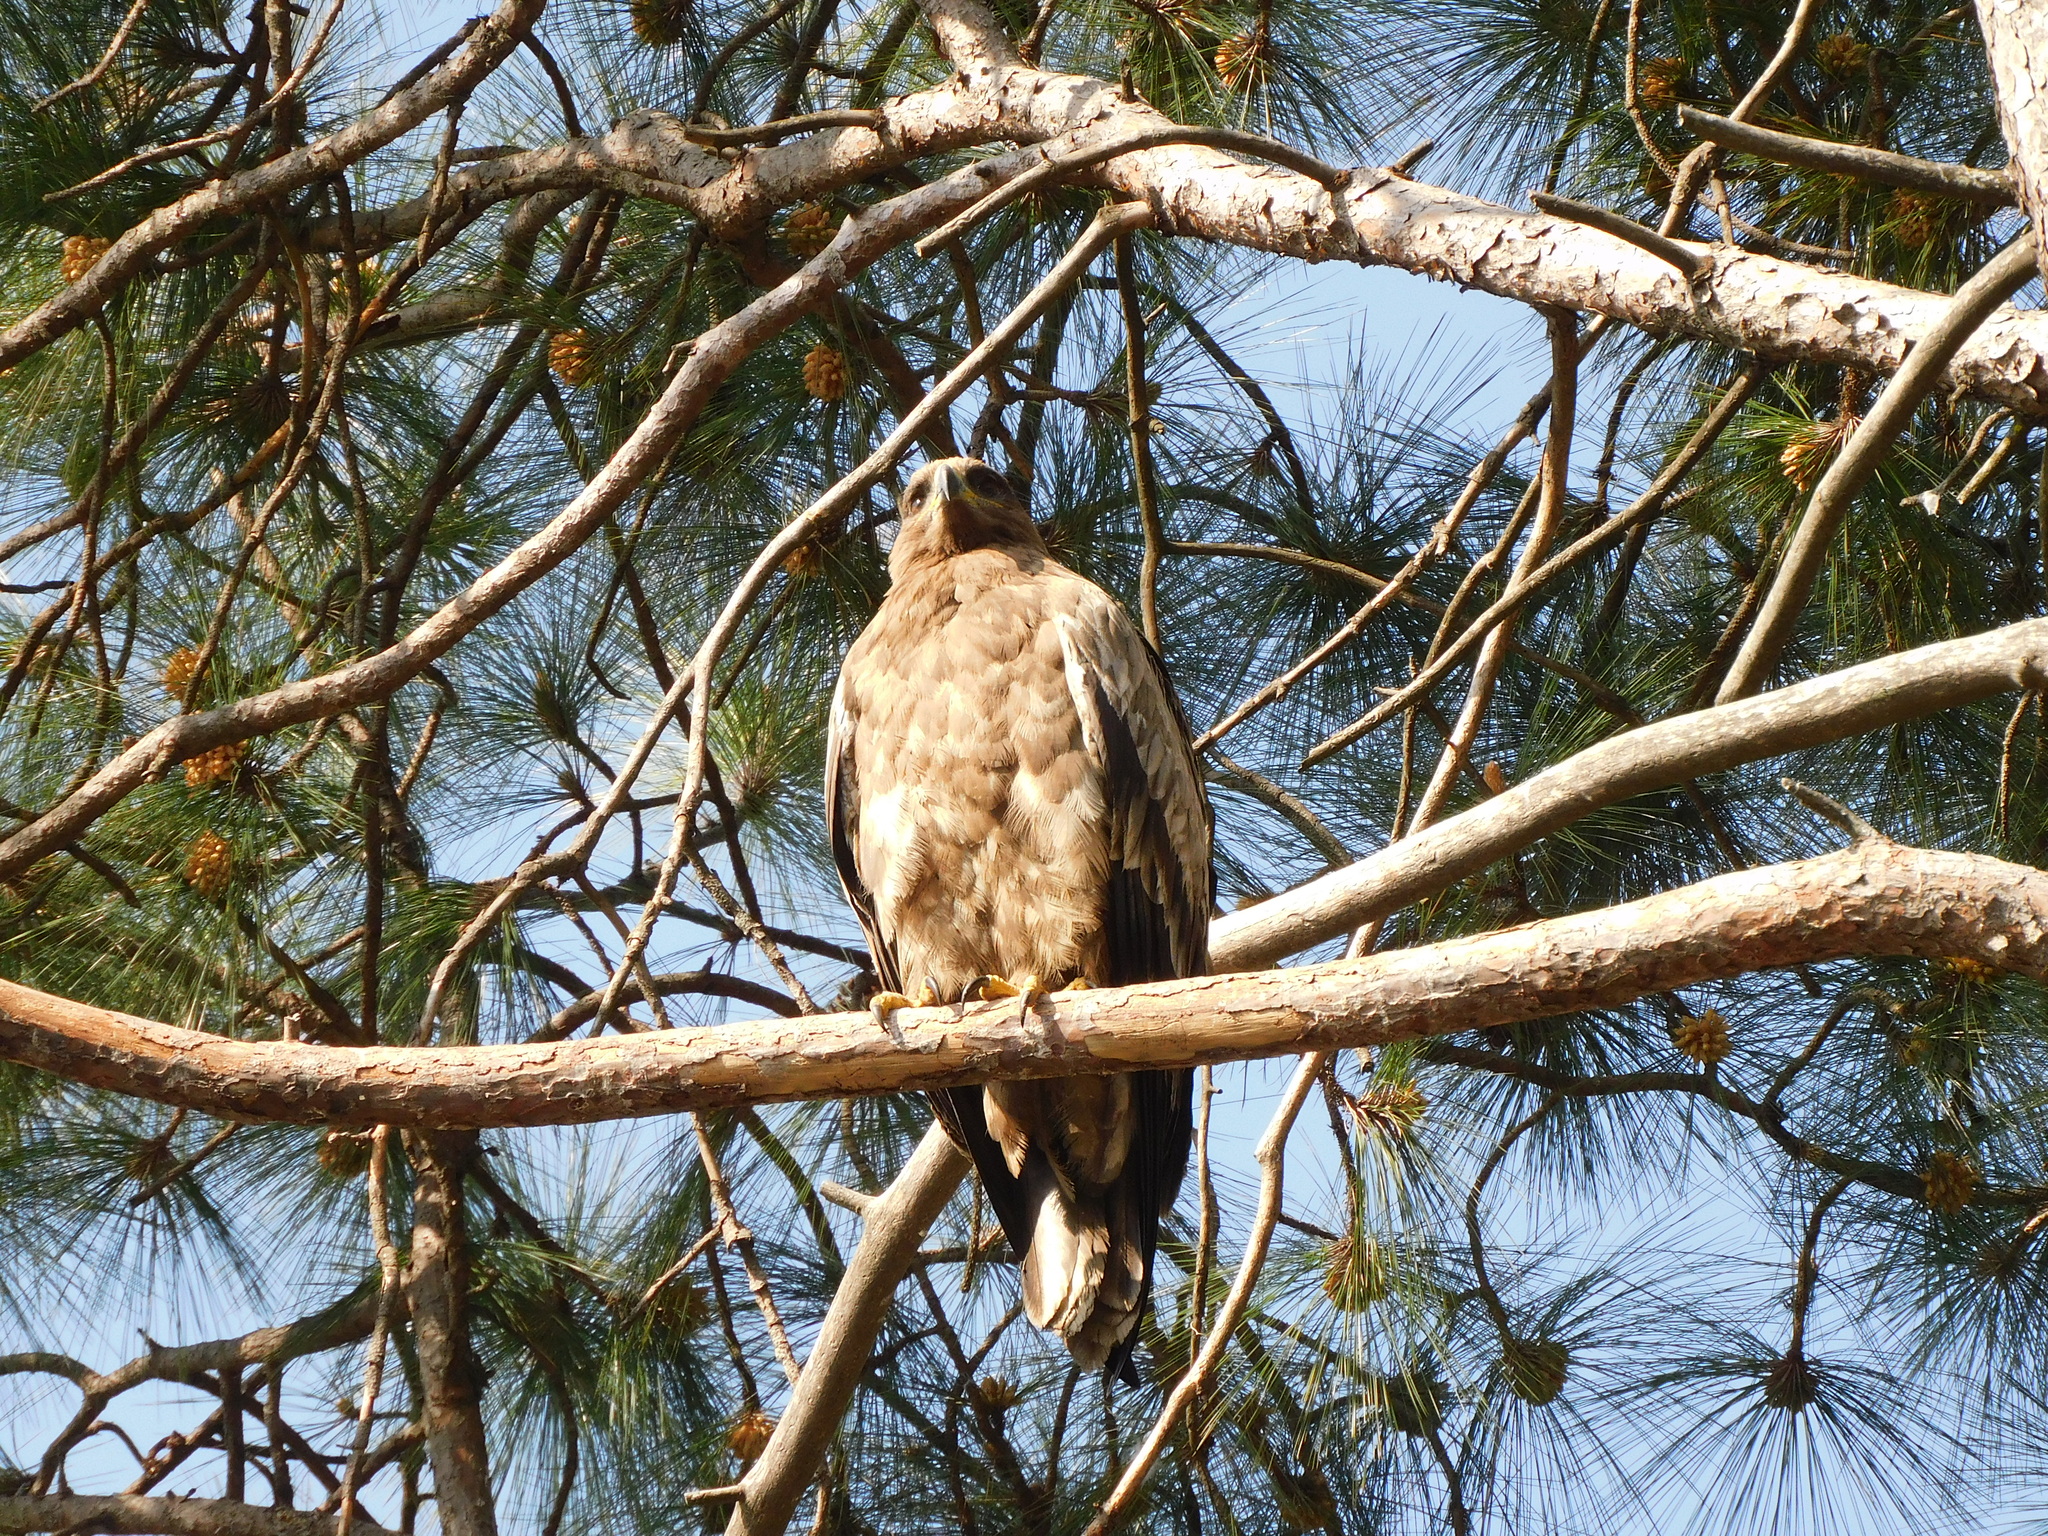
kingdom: Animalia
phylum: Chordata
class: Aves
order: Accipitriformes
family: Accipitridae
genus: Aquila
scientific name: Aquila nipalensis
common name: Steppe eagle
